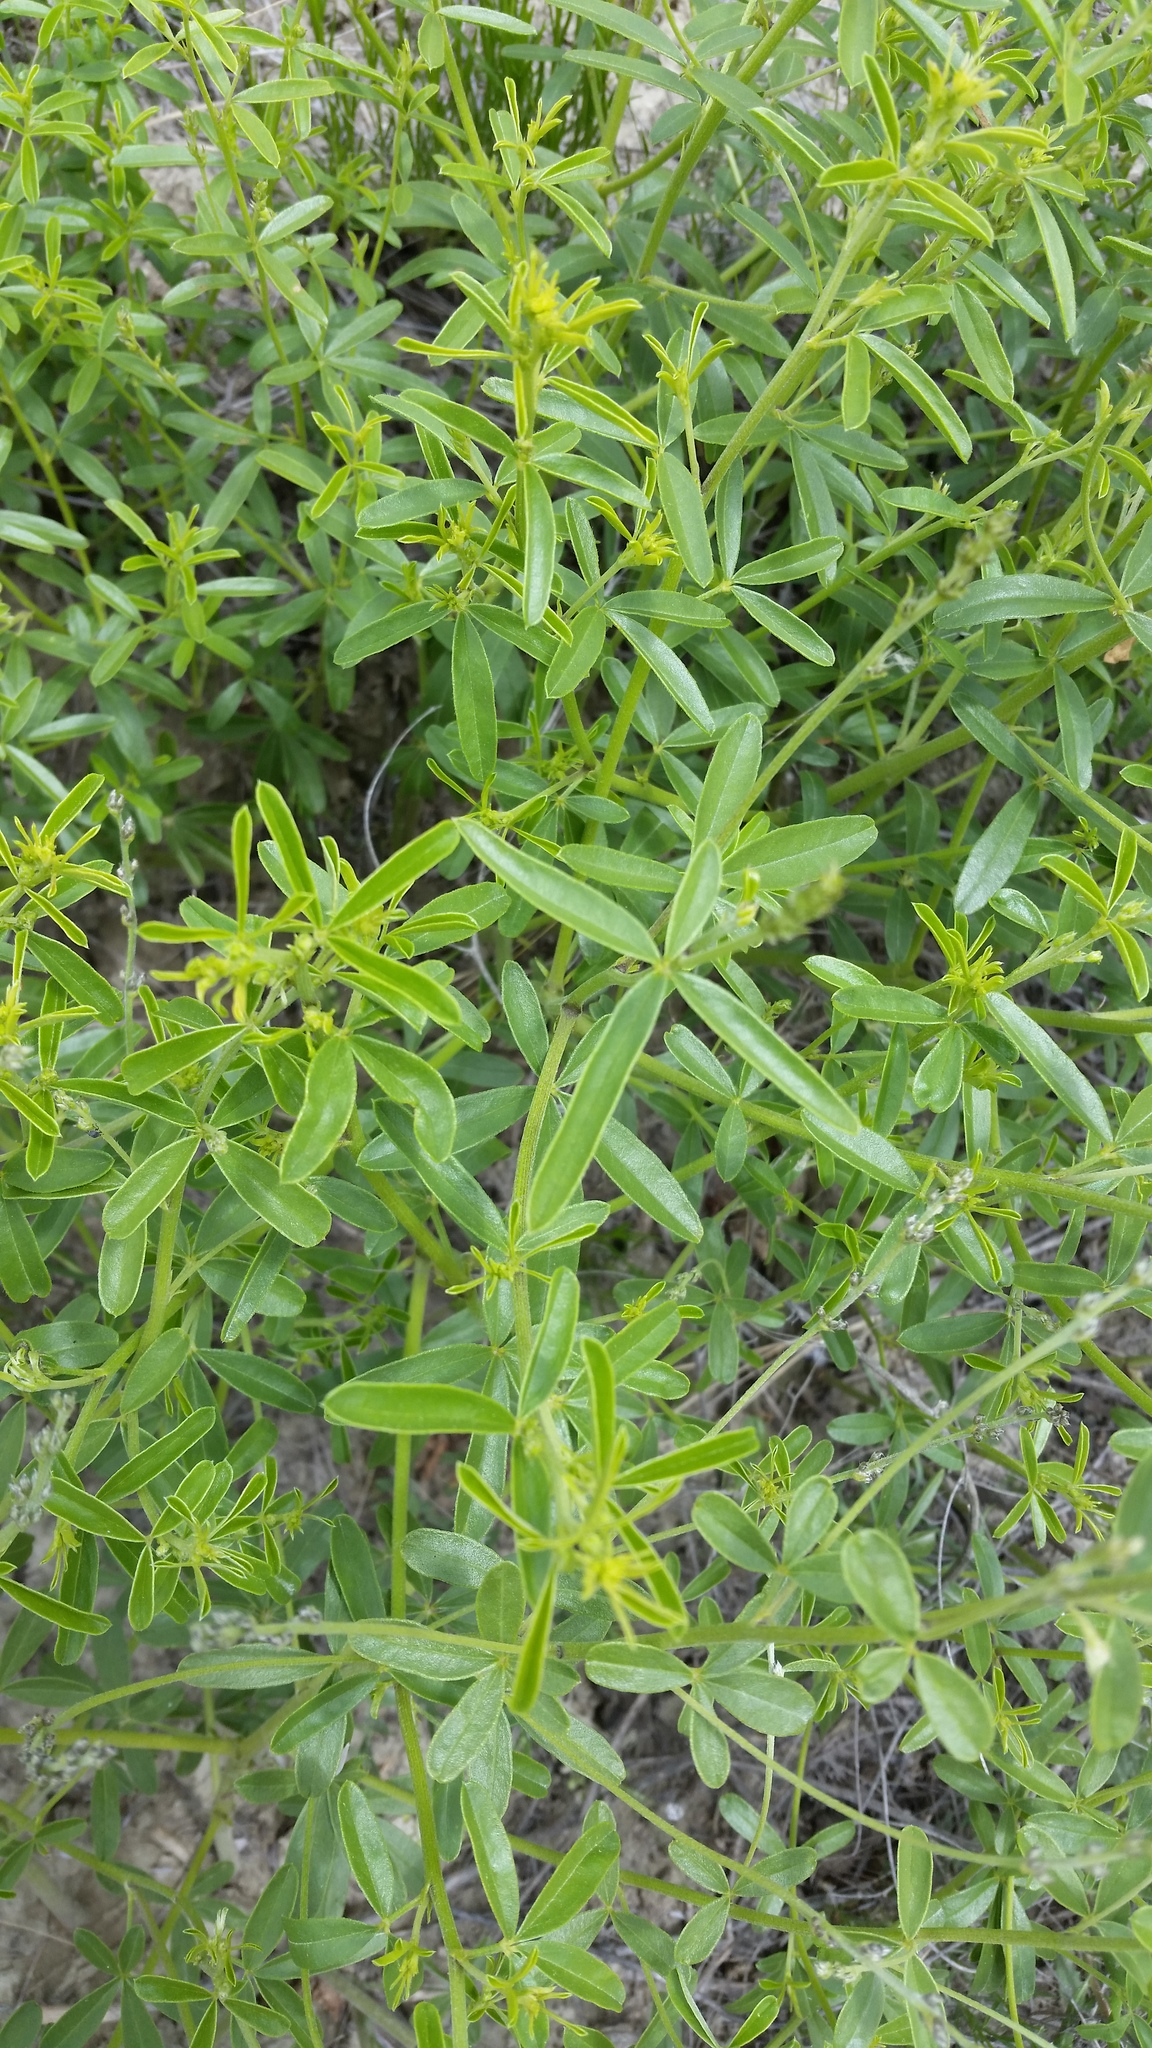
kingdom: Plantae
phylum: Tracheophyta
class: Magnoliopsida
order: Fabales
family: Fabaceae
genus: Pediomelum
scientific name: Pediomelum tenuiflorum
